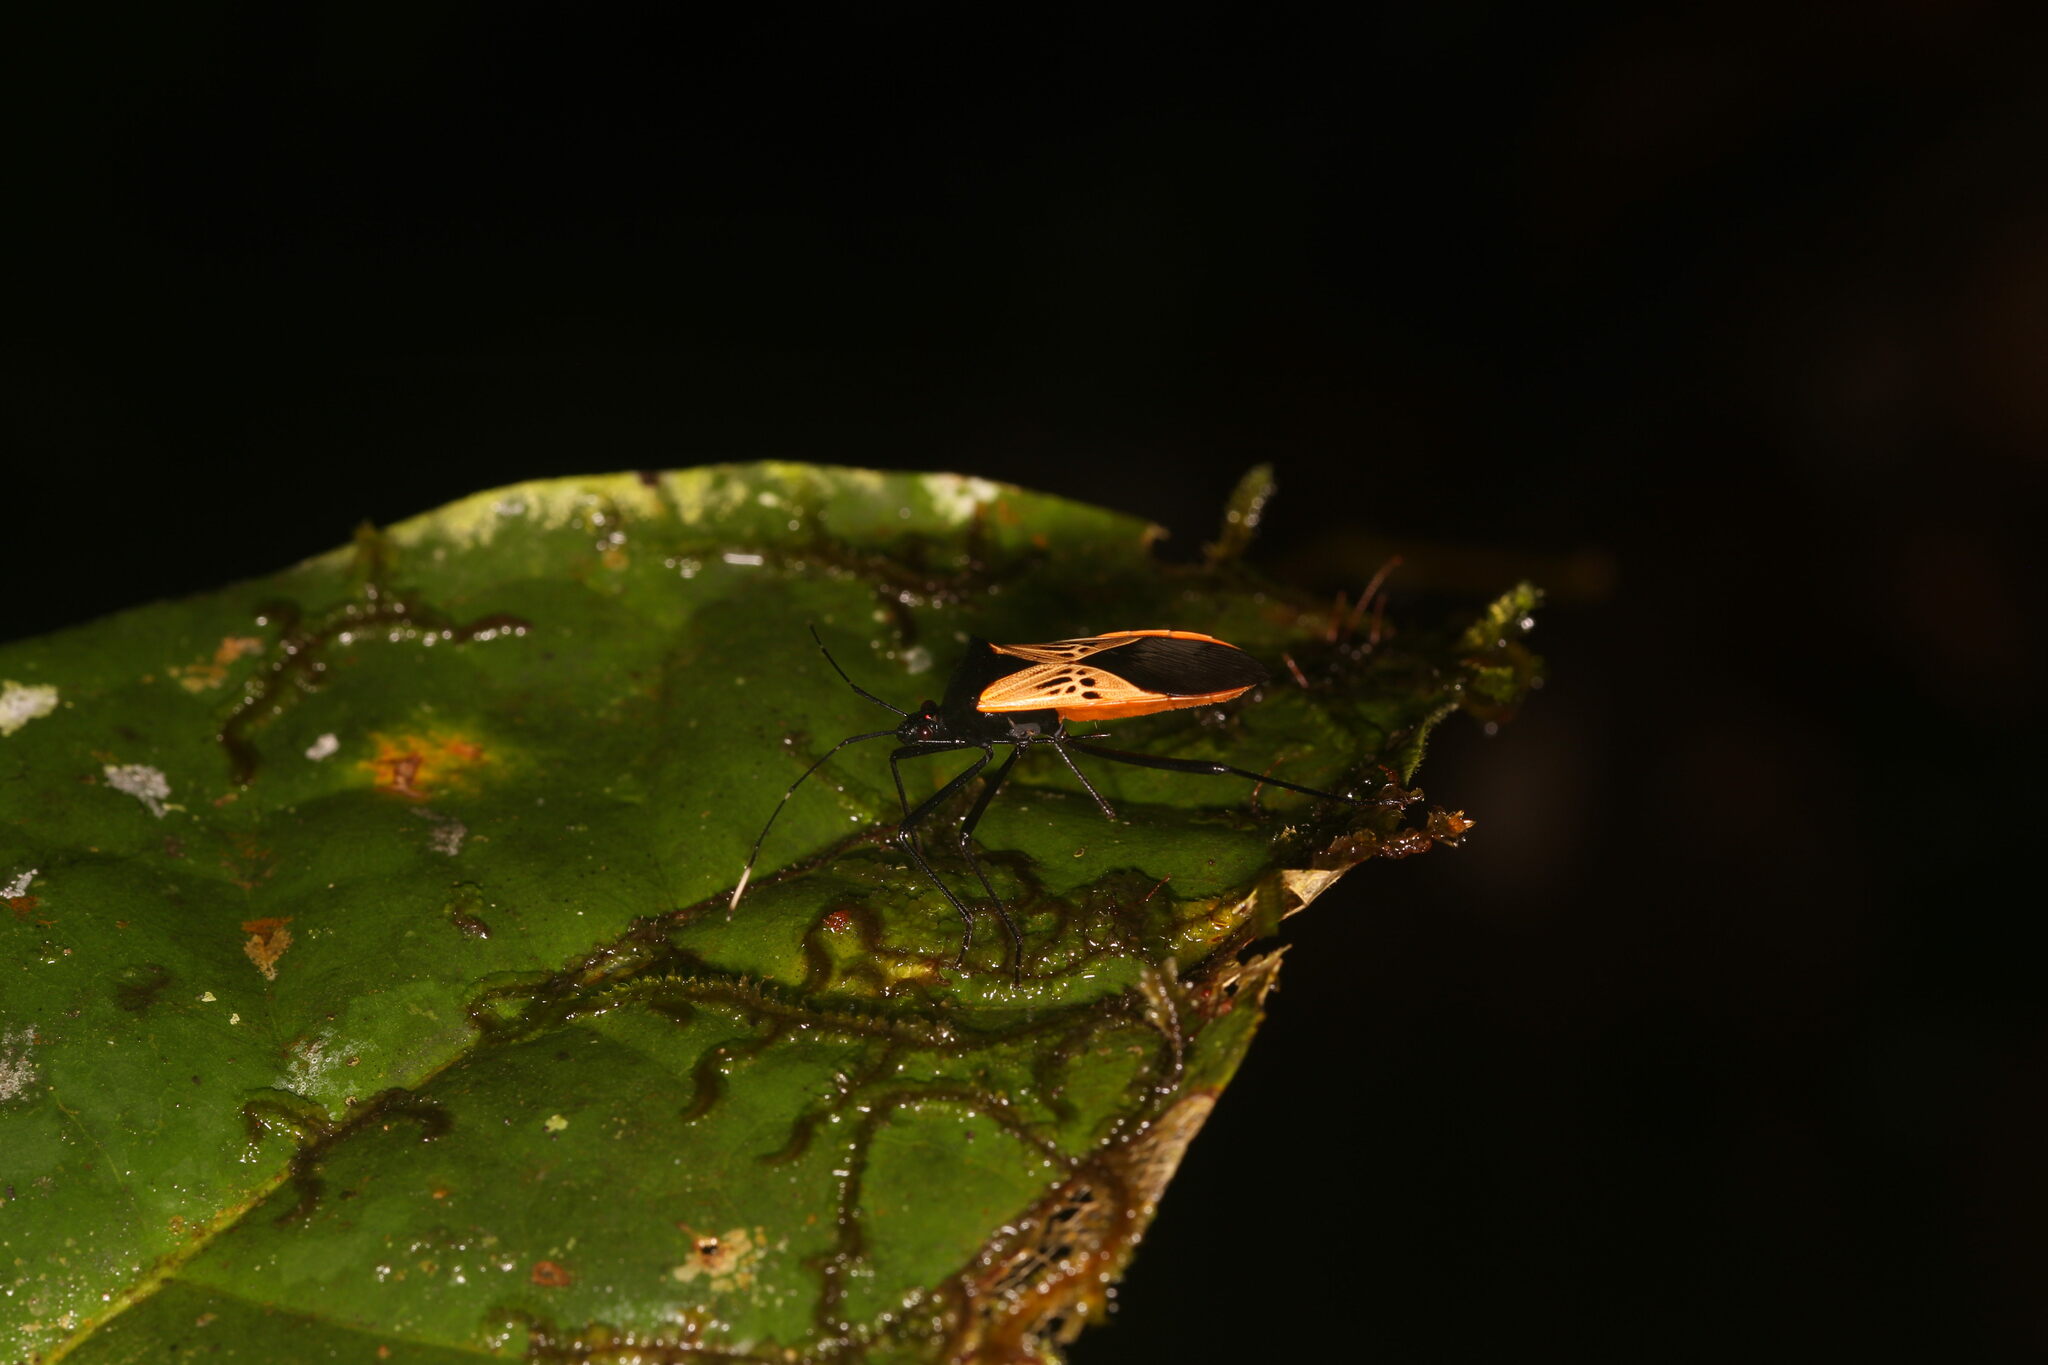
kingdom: Animalia
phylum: Arthropoda
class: Insecta
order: Hemiptera
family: Coreidae
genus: Leptoscelis
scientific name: Leptoscelis limbativentris
